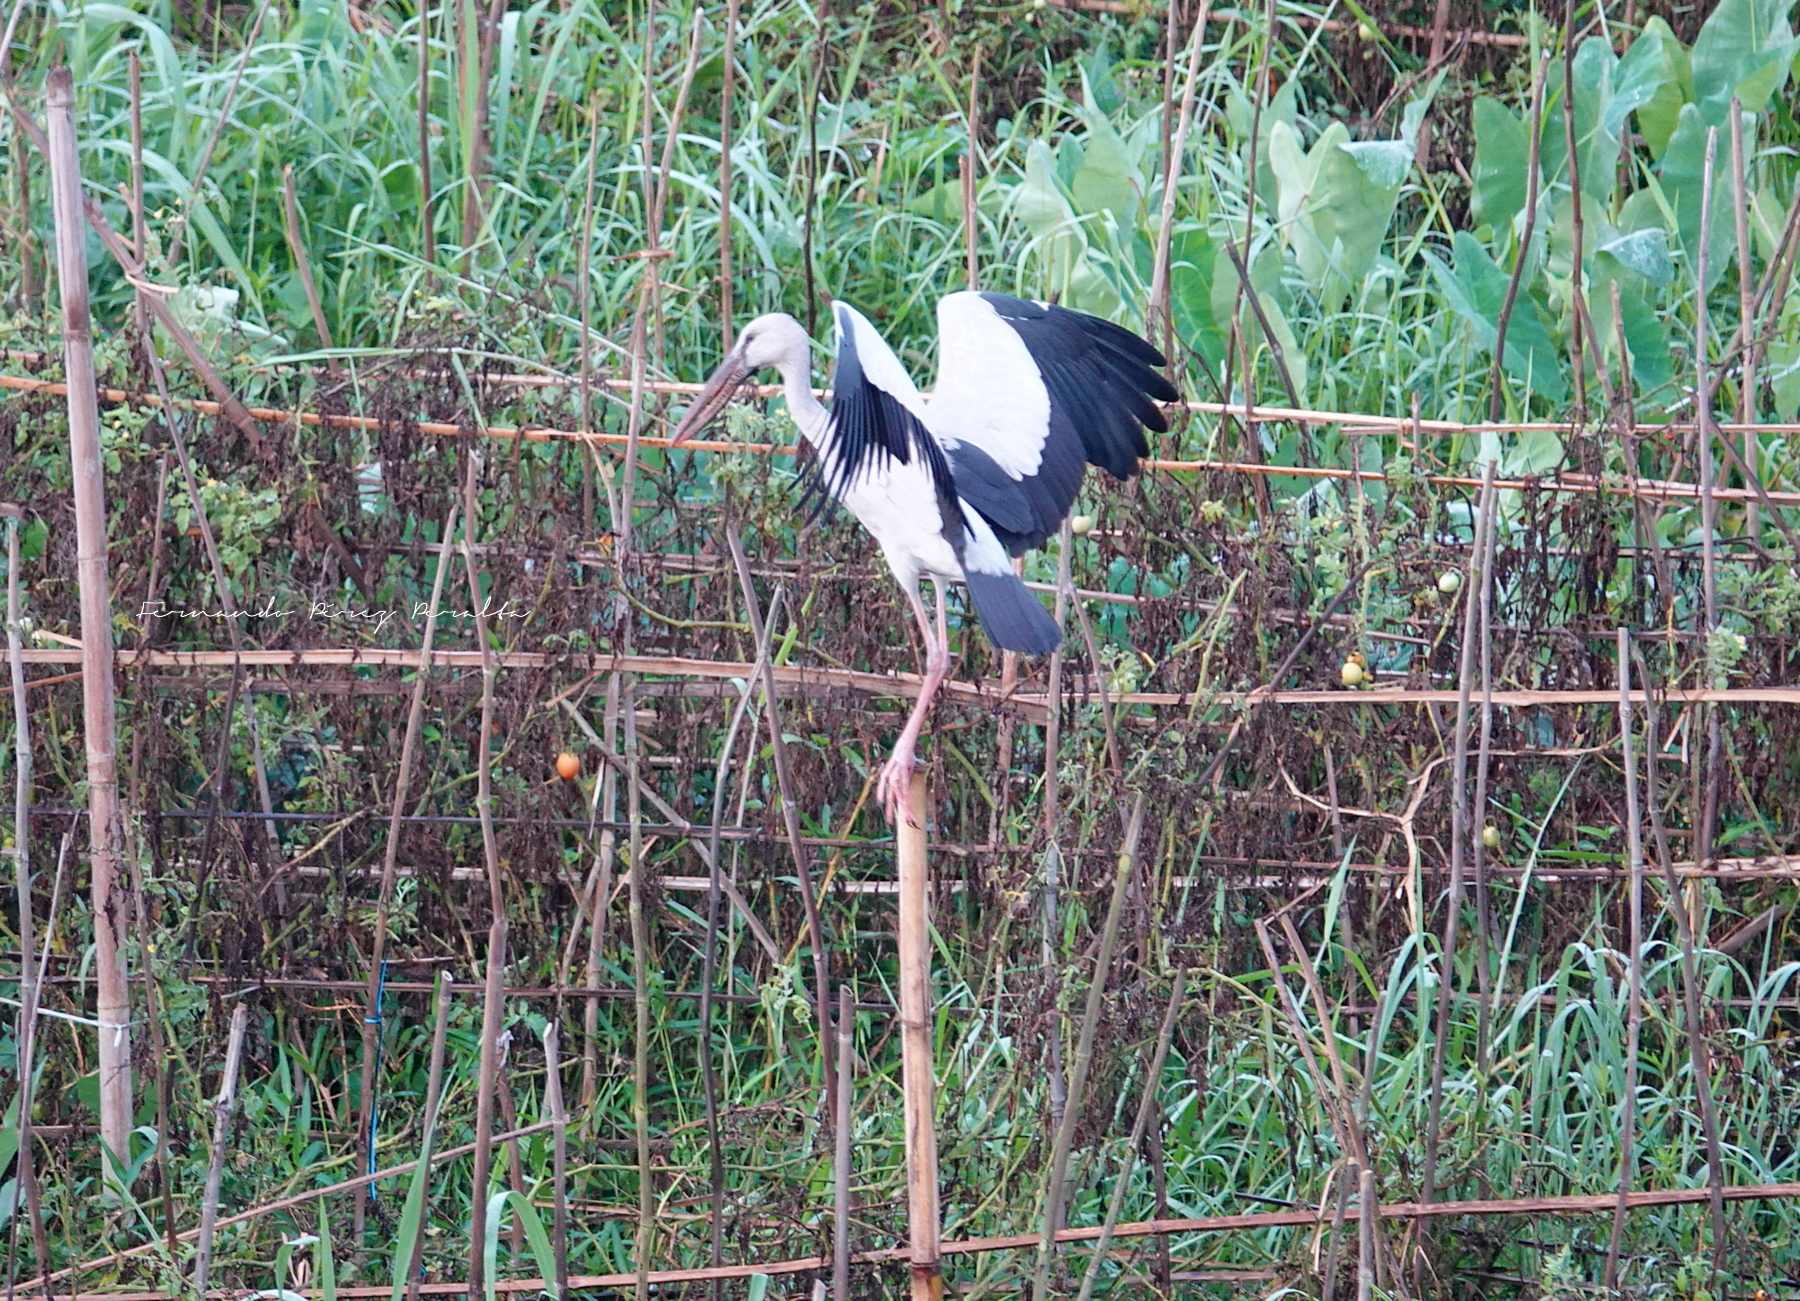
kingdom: Animalia
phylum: Chordata
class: Aves
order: Ciconiiformes
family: Ciconiidae
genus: Anastomus
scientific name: Anastomus oscitans
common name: Asian openbill
